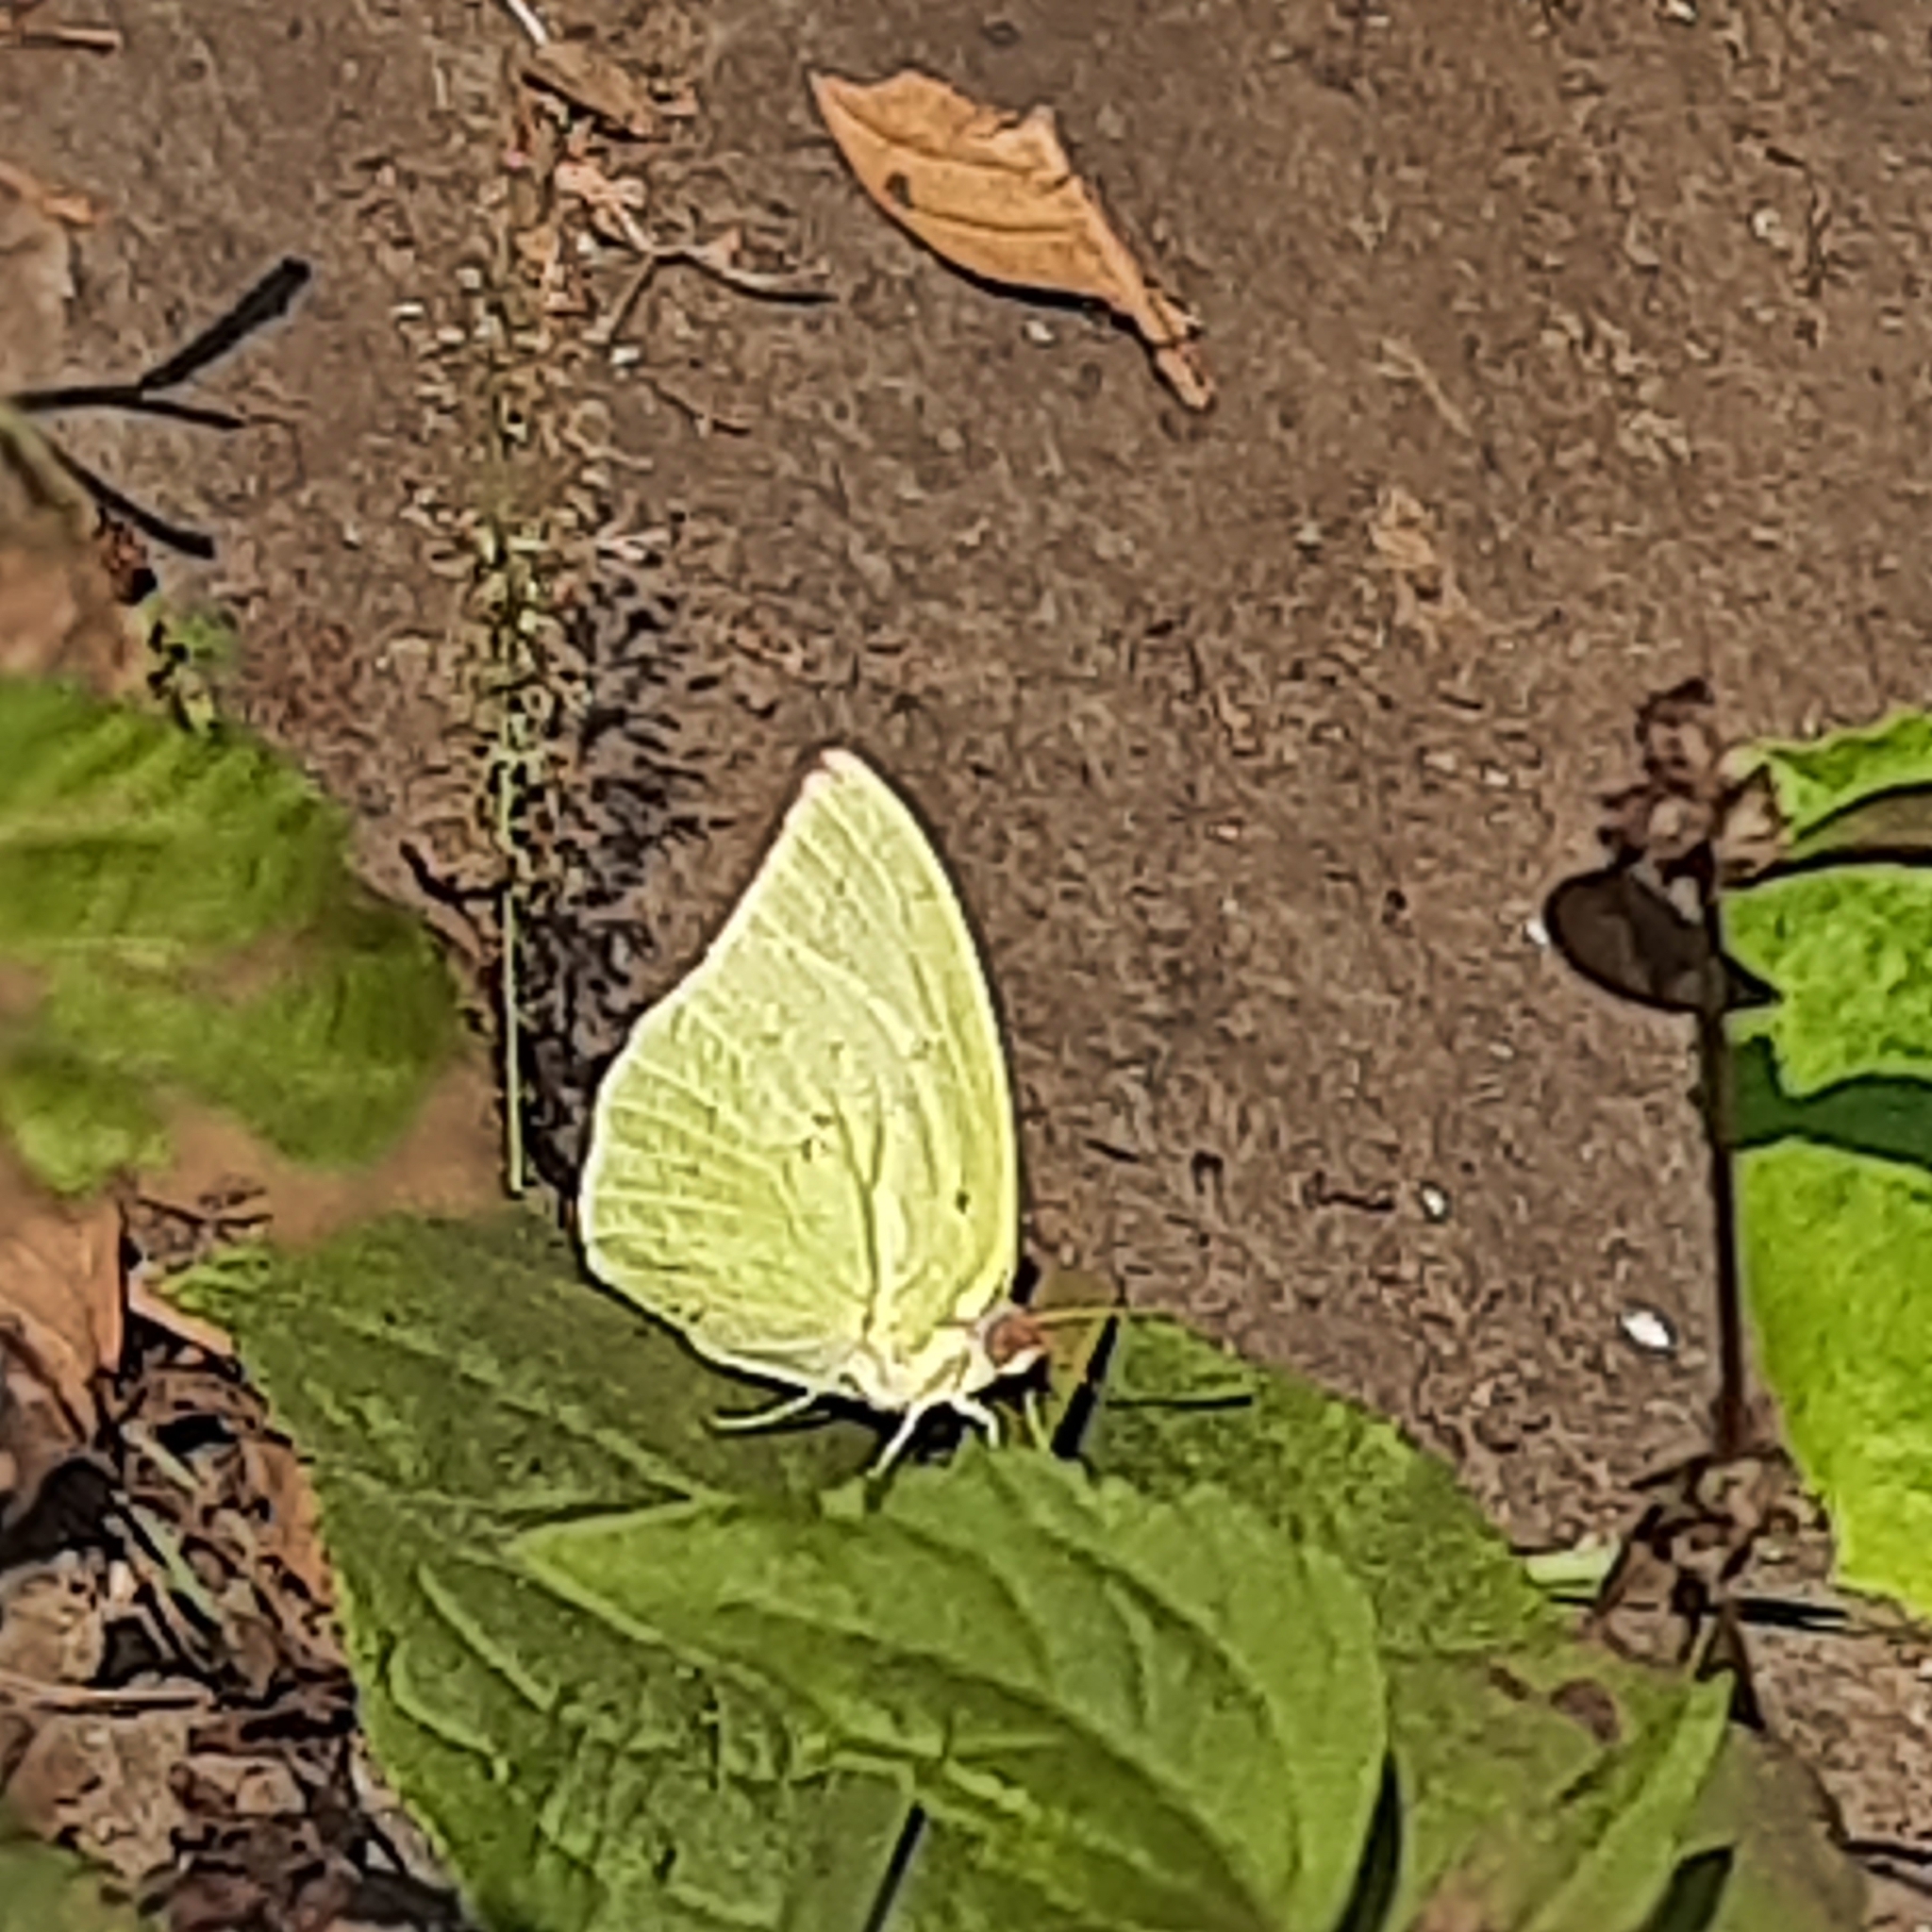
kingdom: Animalia
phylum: Arthropoda
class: Insecta
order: Lepidoptera
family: Pieridae
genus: Catopsilia
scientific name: Catopsilia pomona
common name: Common emigrant
